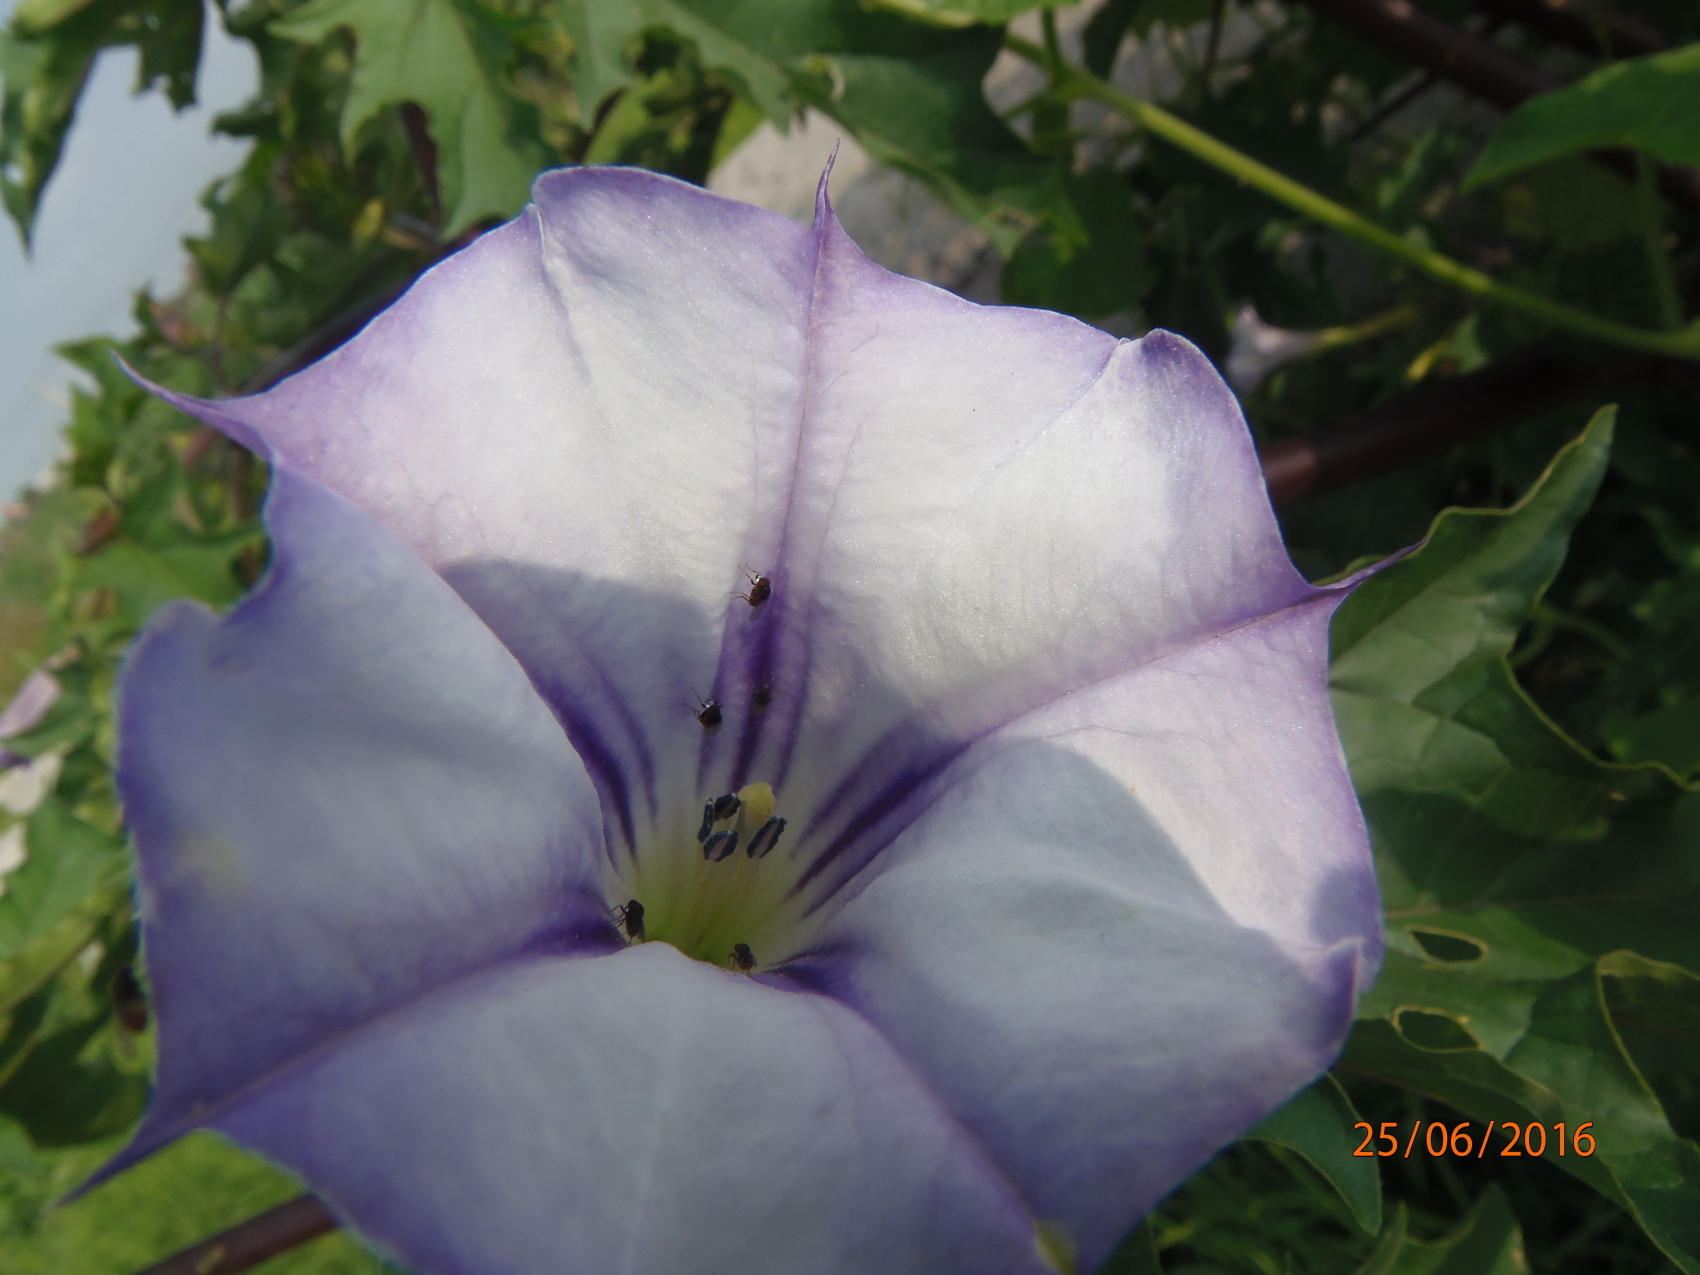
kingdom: Plantae
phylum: Tracheophyta
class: Magnoliopsida
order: Solanales
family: Solanaceae
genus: Datura
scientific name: Datura stramonium
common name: Thorn-apple
